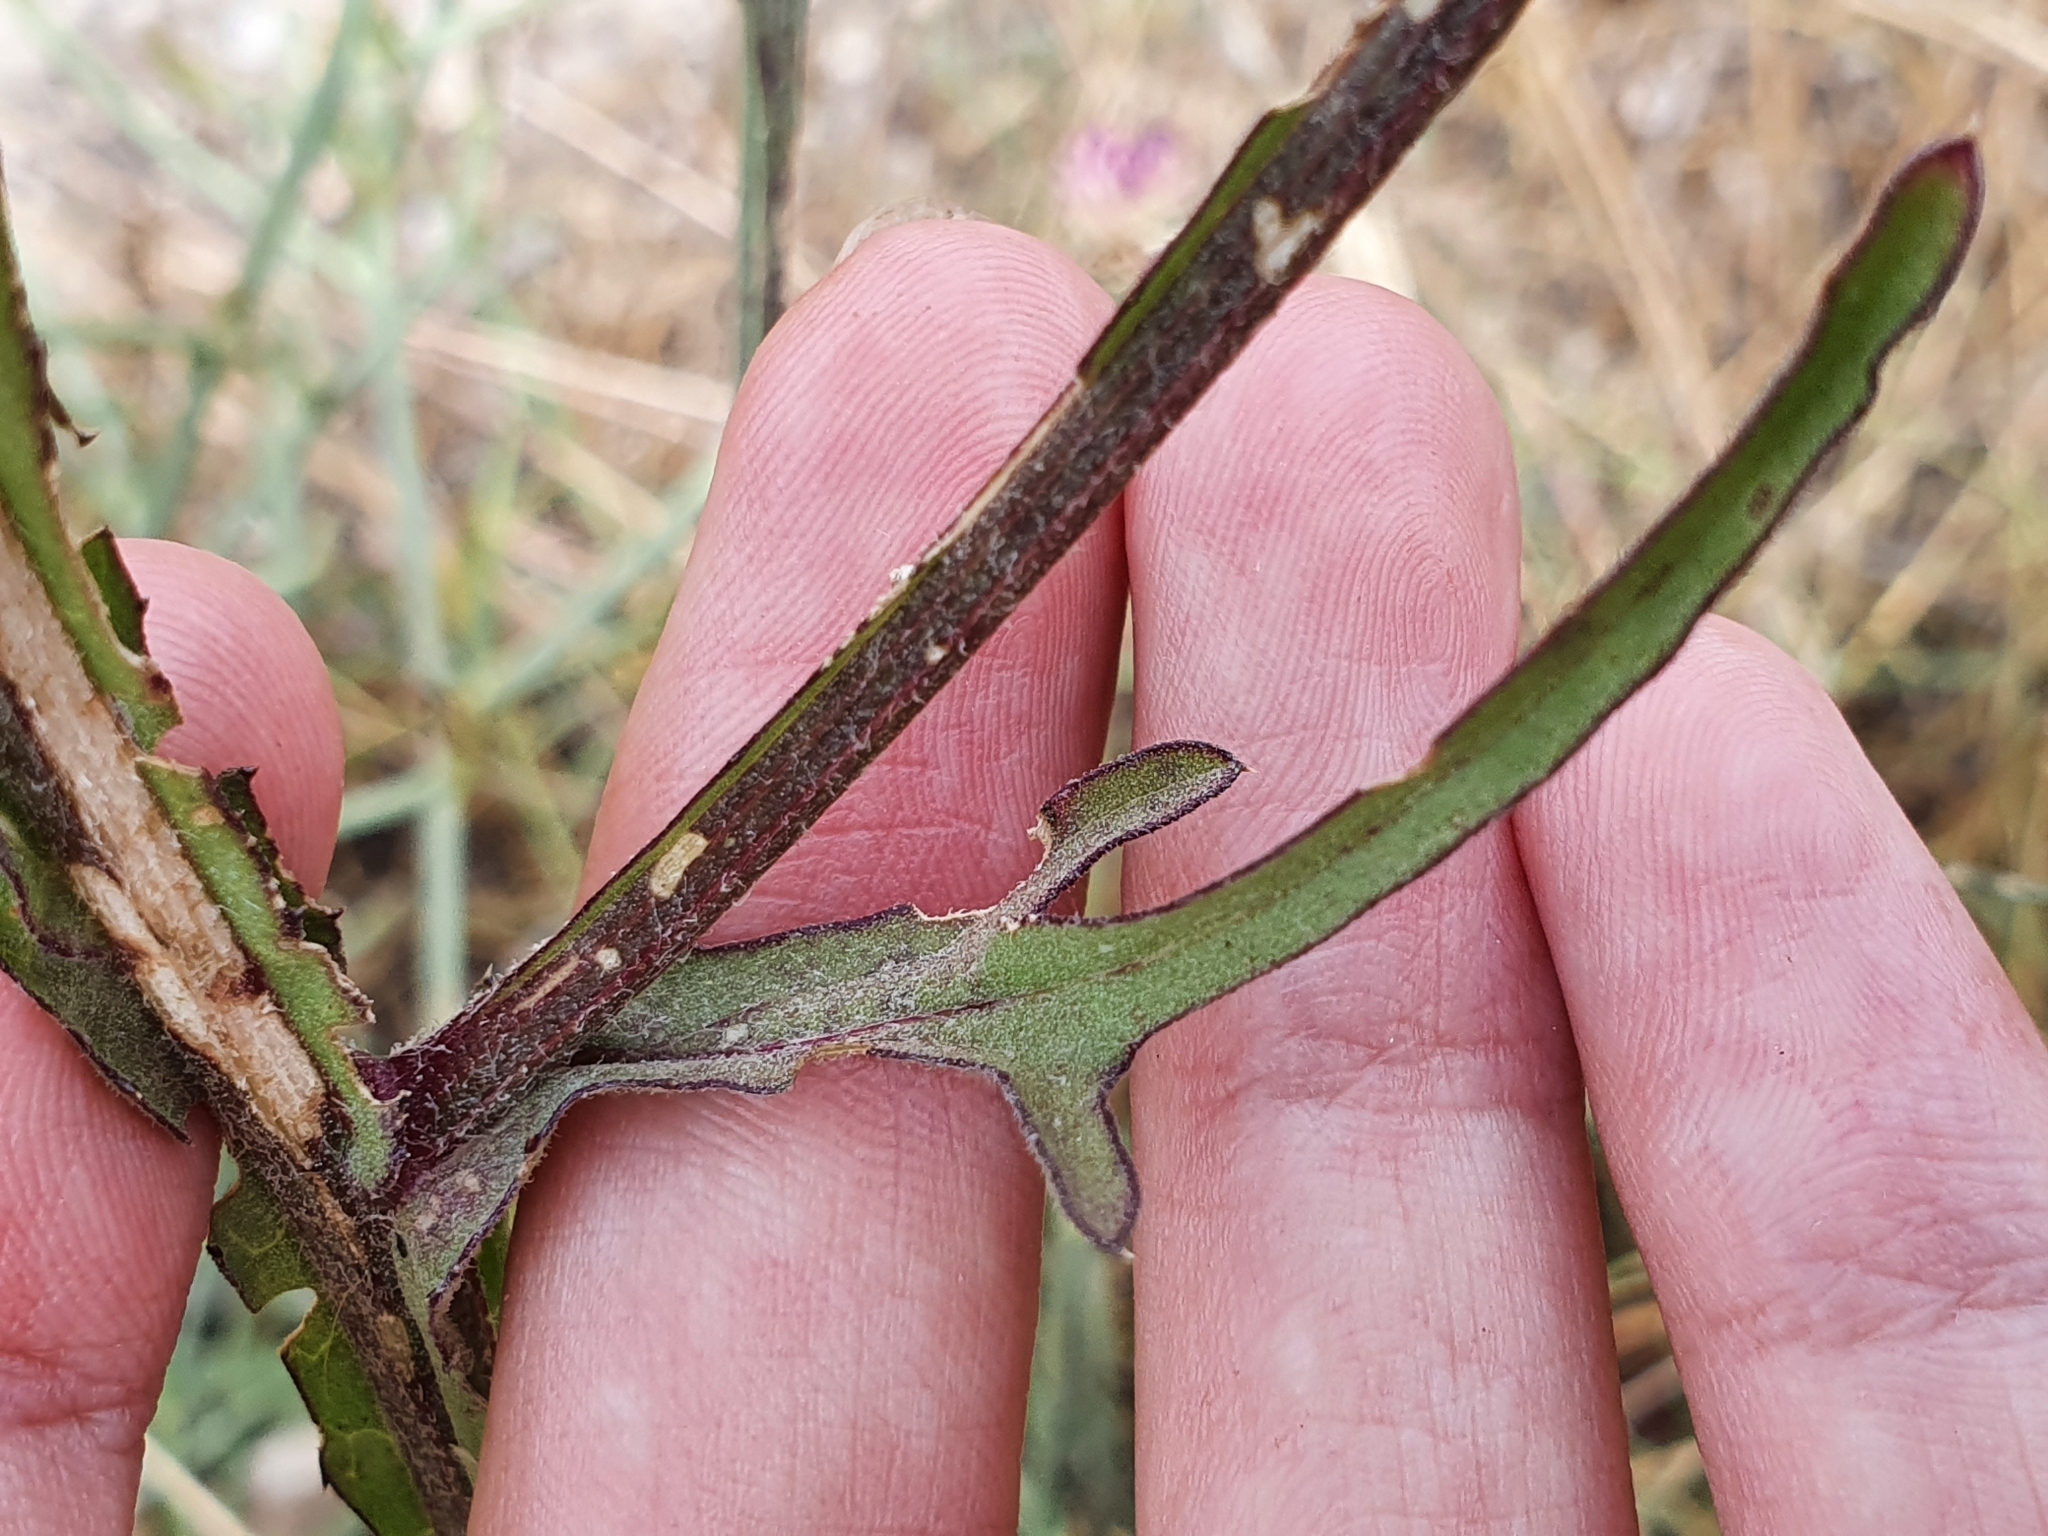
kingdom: Plantae
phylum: Tracheophyta
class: Magnoliopsida
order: Asterales
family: Asteraceae
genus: Centaurea
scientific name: Centaurea napifolia
